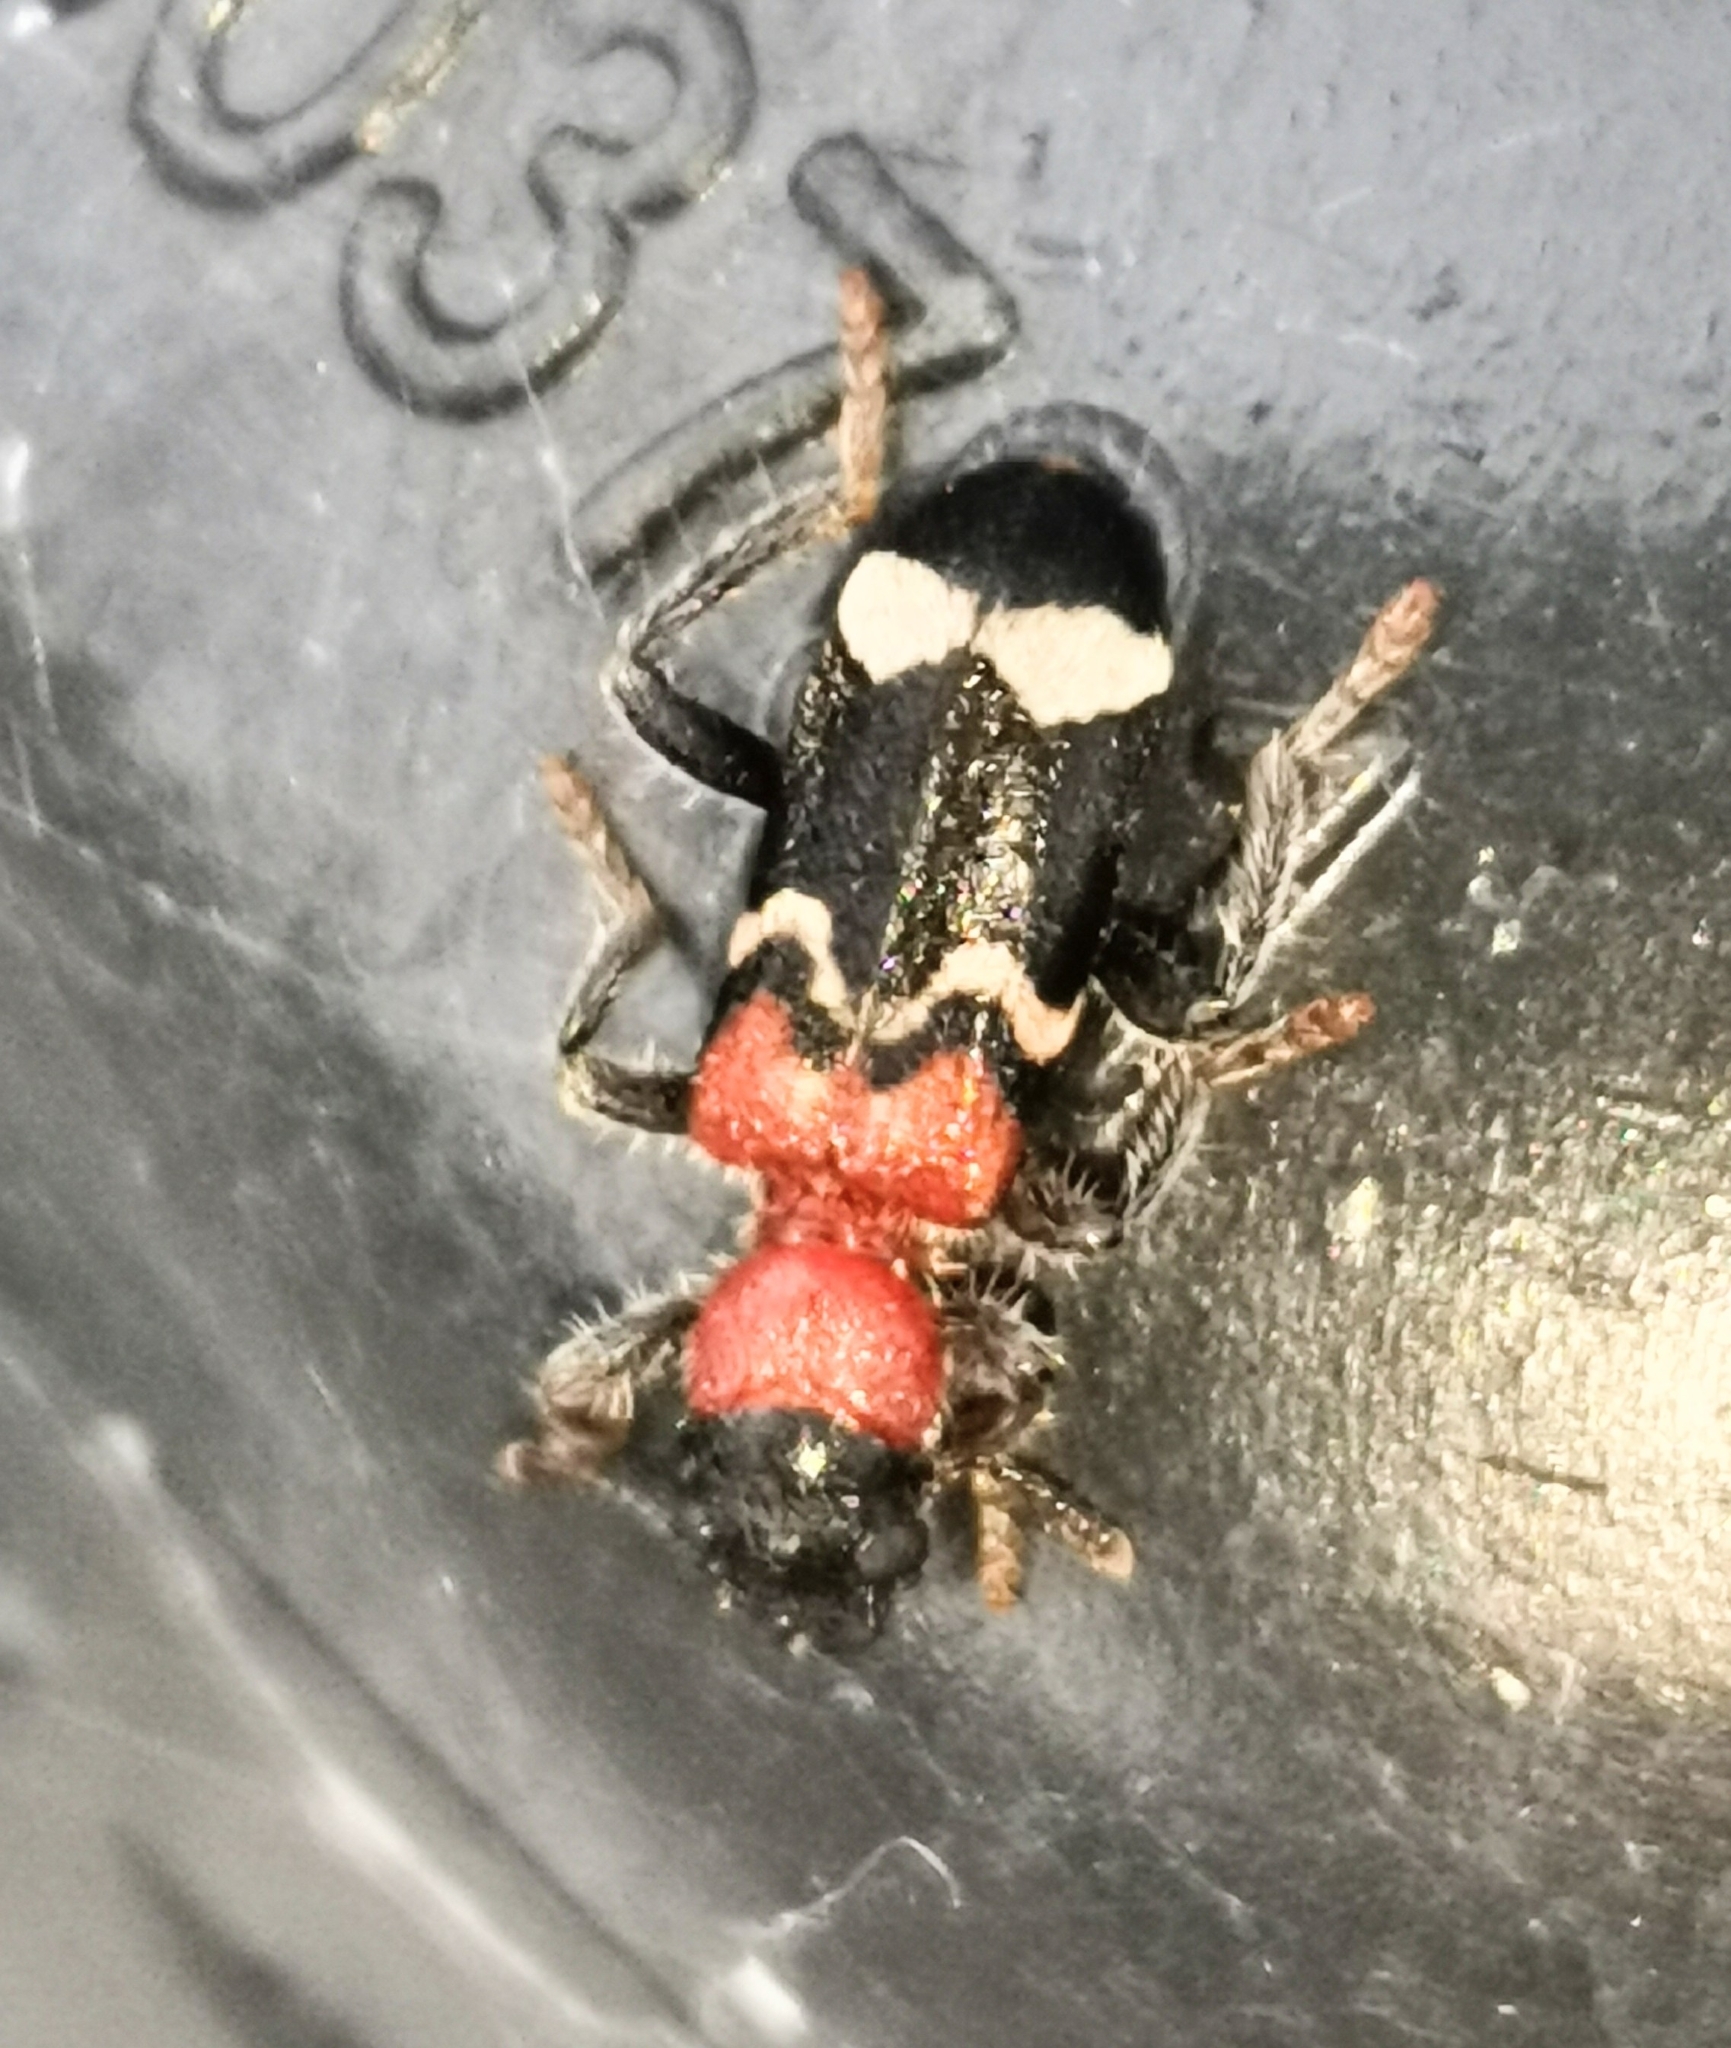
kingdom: Animalia
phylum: Arthropoda
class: Insecta
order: Coleoptera
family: Cleridae
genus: Thanasimus
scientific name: Thanasimus formicarius
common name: Ant beetle
